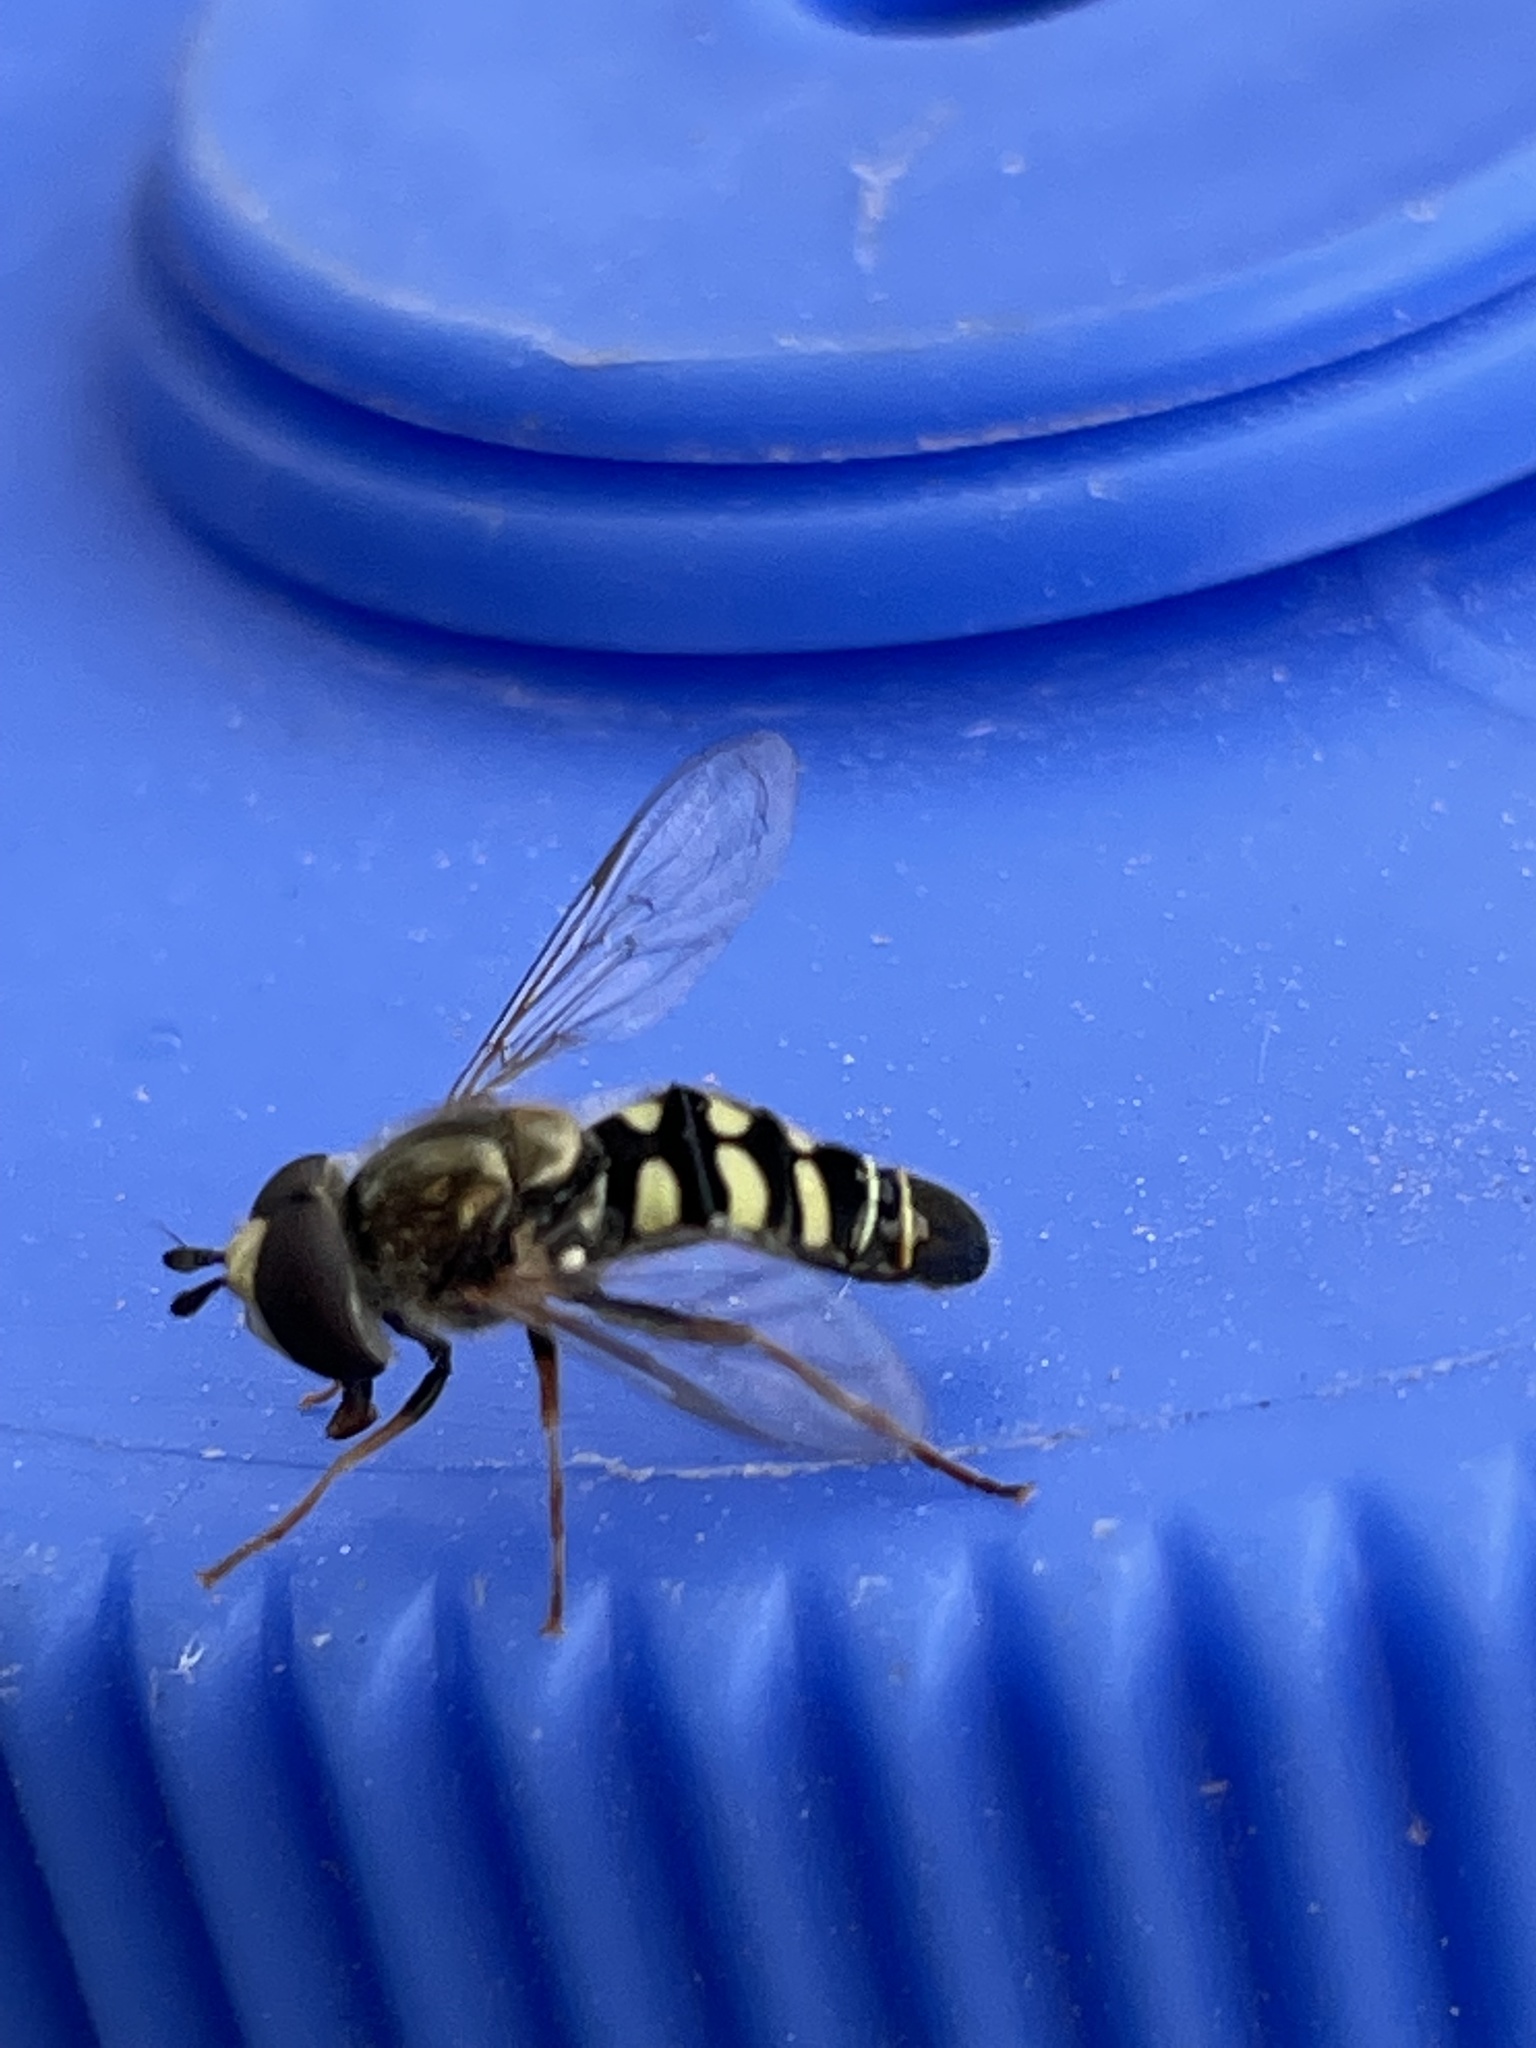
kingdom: Animalia
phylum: Arthropoda
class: Insecta
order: Diptera
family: Syrphidae
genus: Eupeodes
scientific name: Eupeodes volucris
